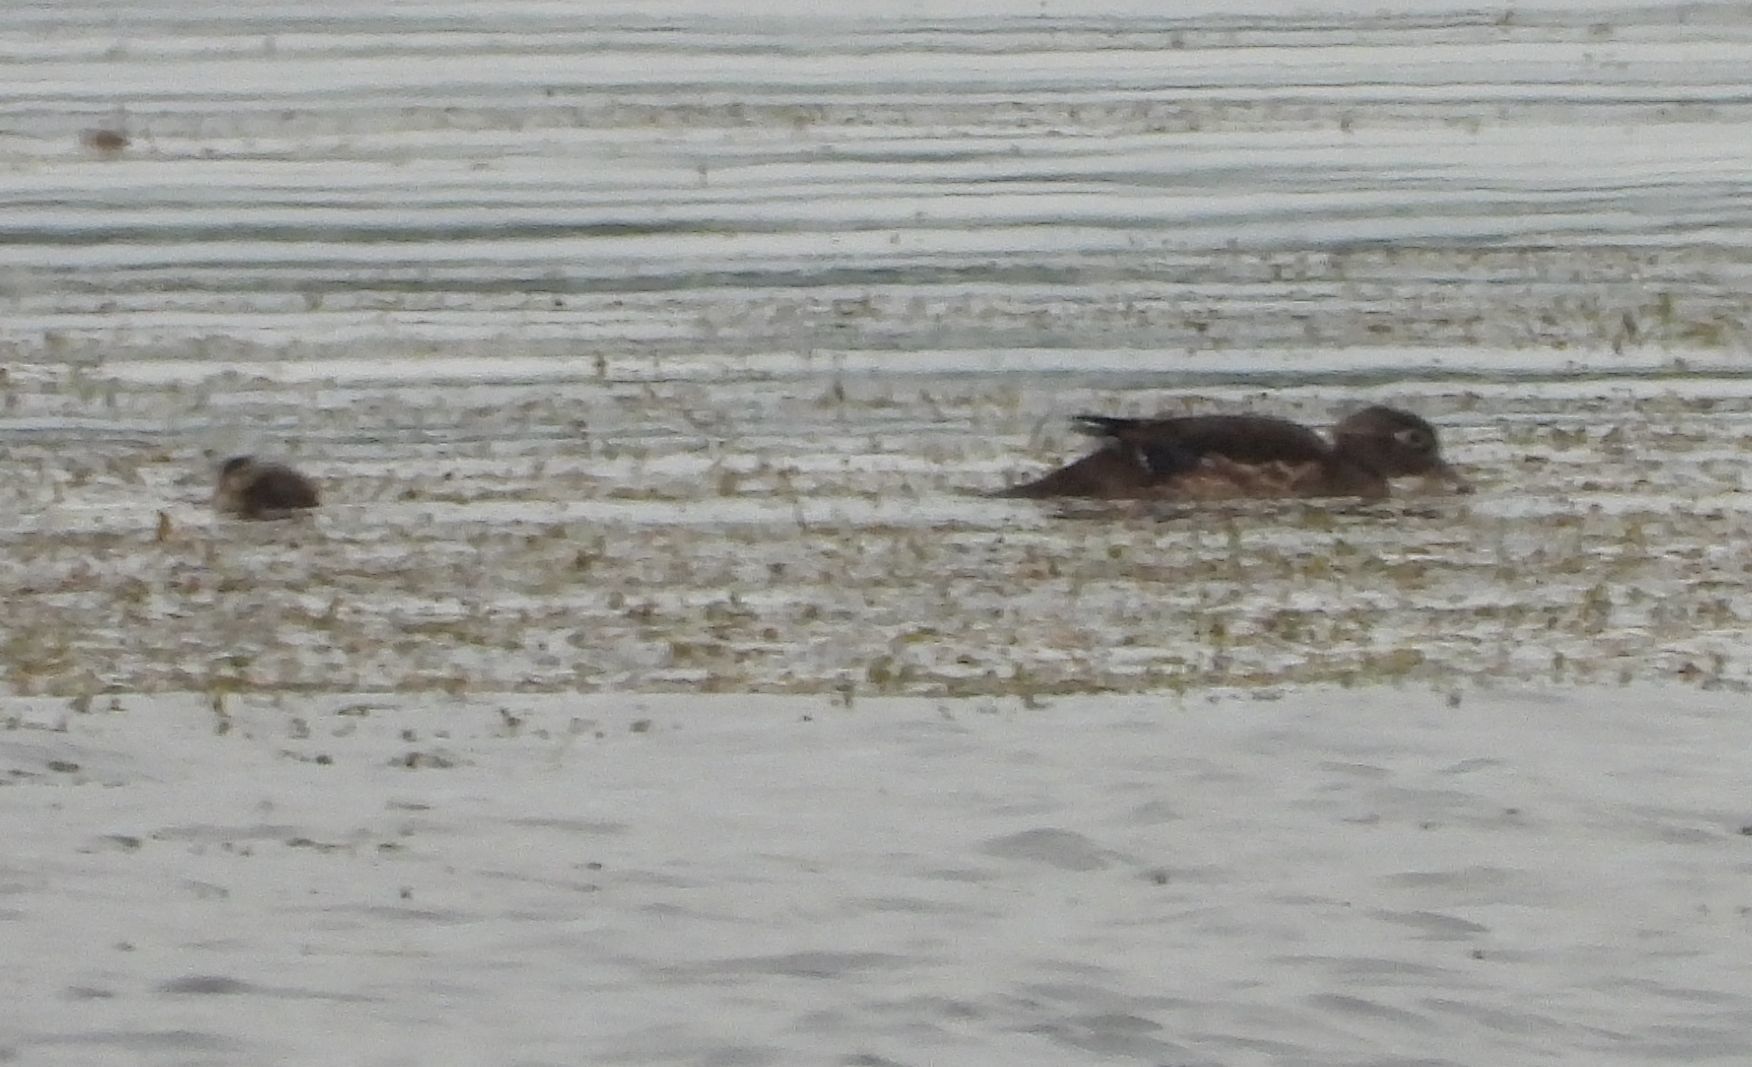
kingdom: Animalia
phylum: Chordata
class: Aves
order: Anseriformes
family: Anatidae
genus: Aix
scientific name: Aix sponsa
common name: Wood duck
